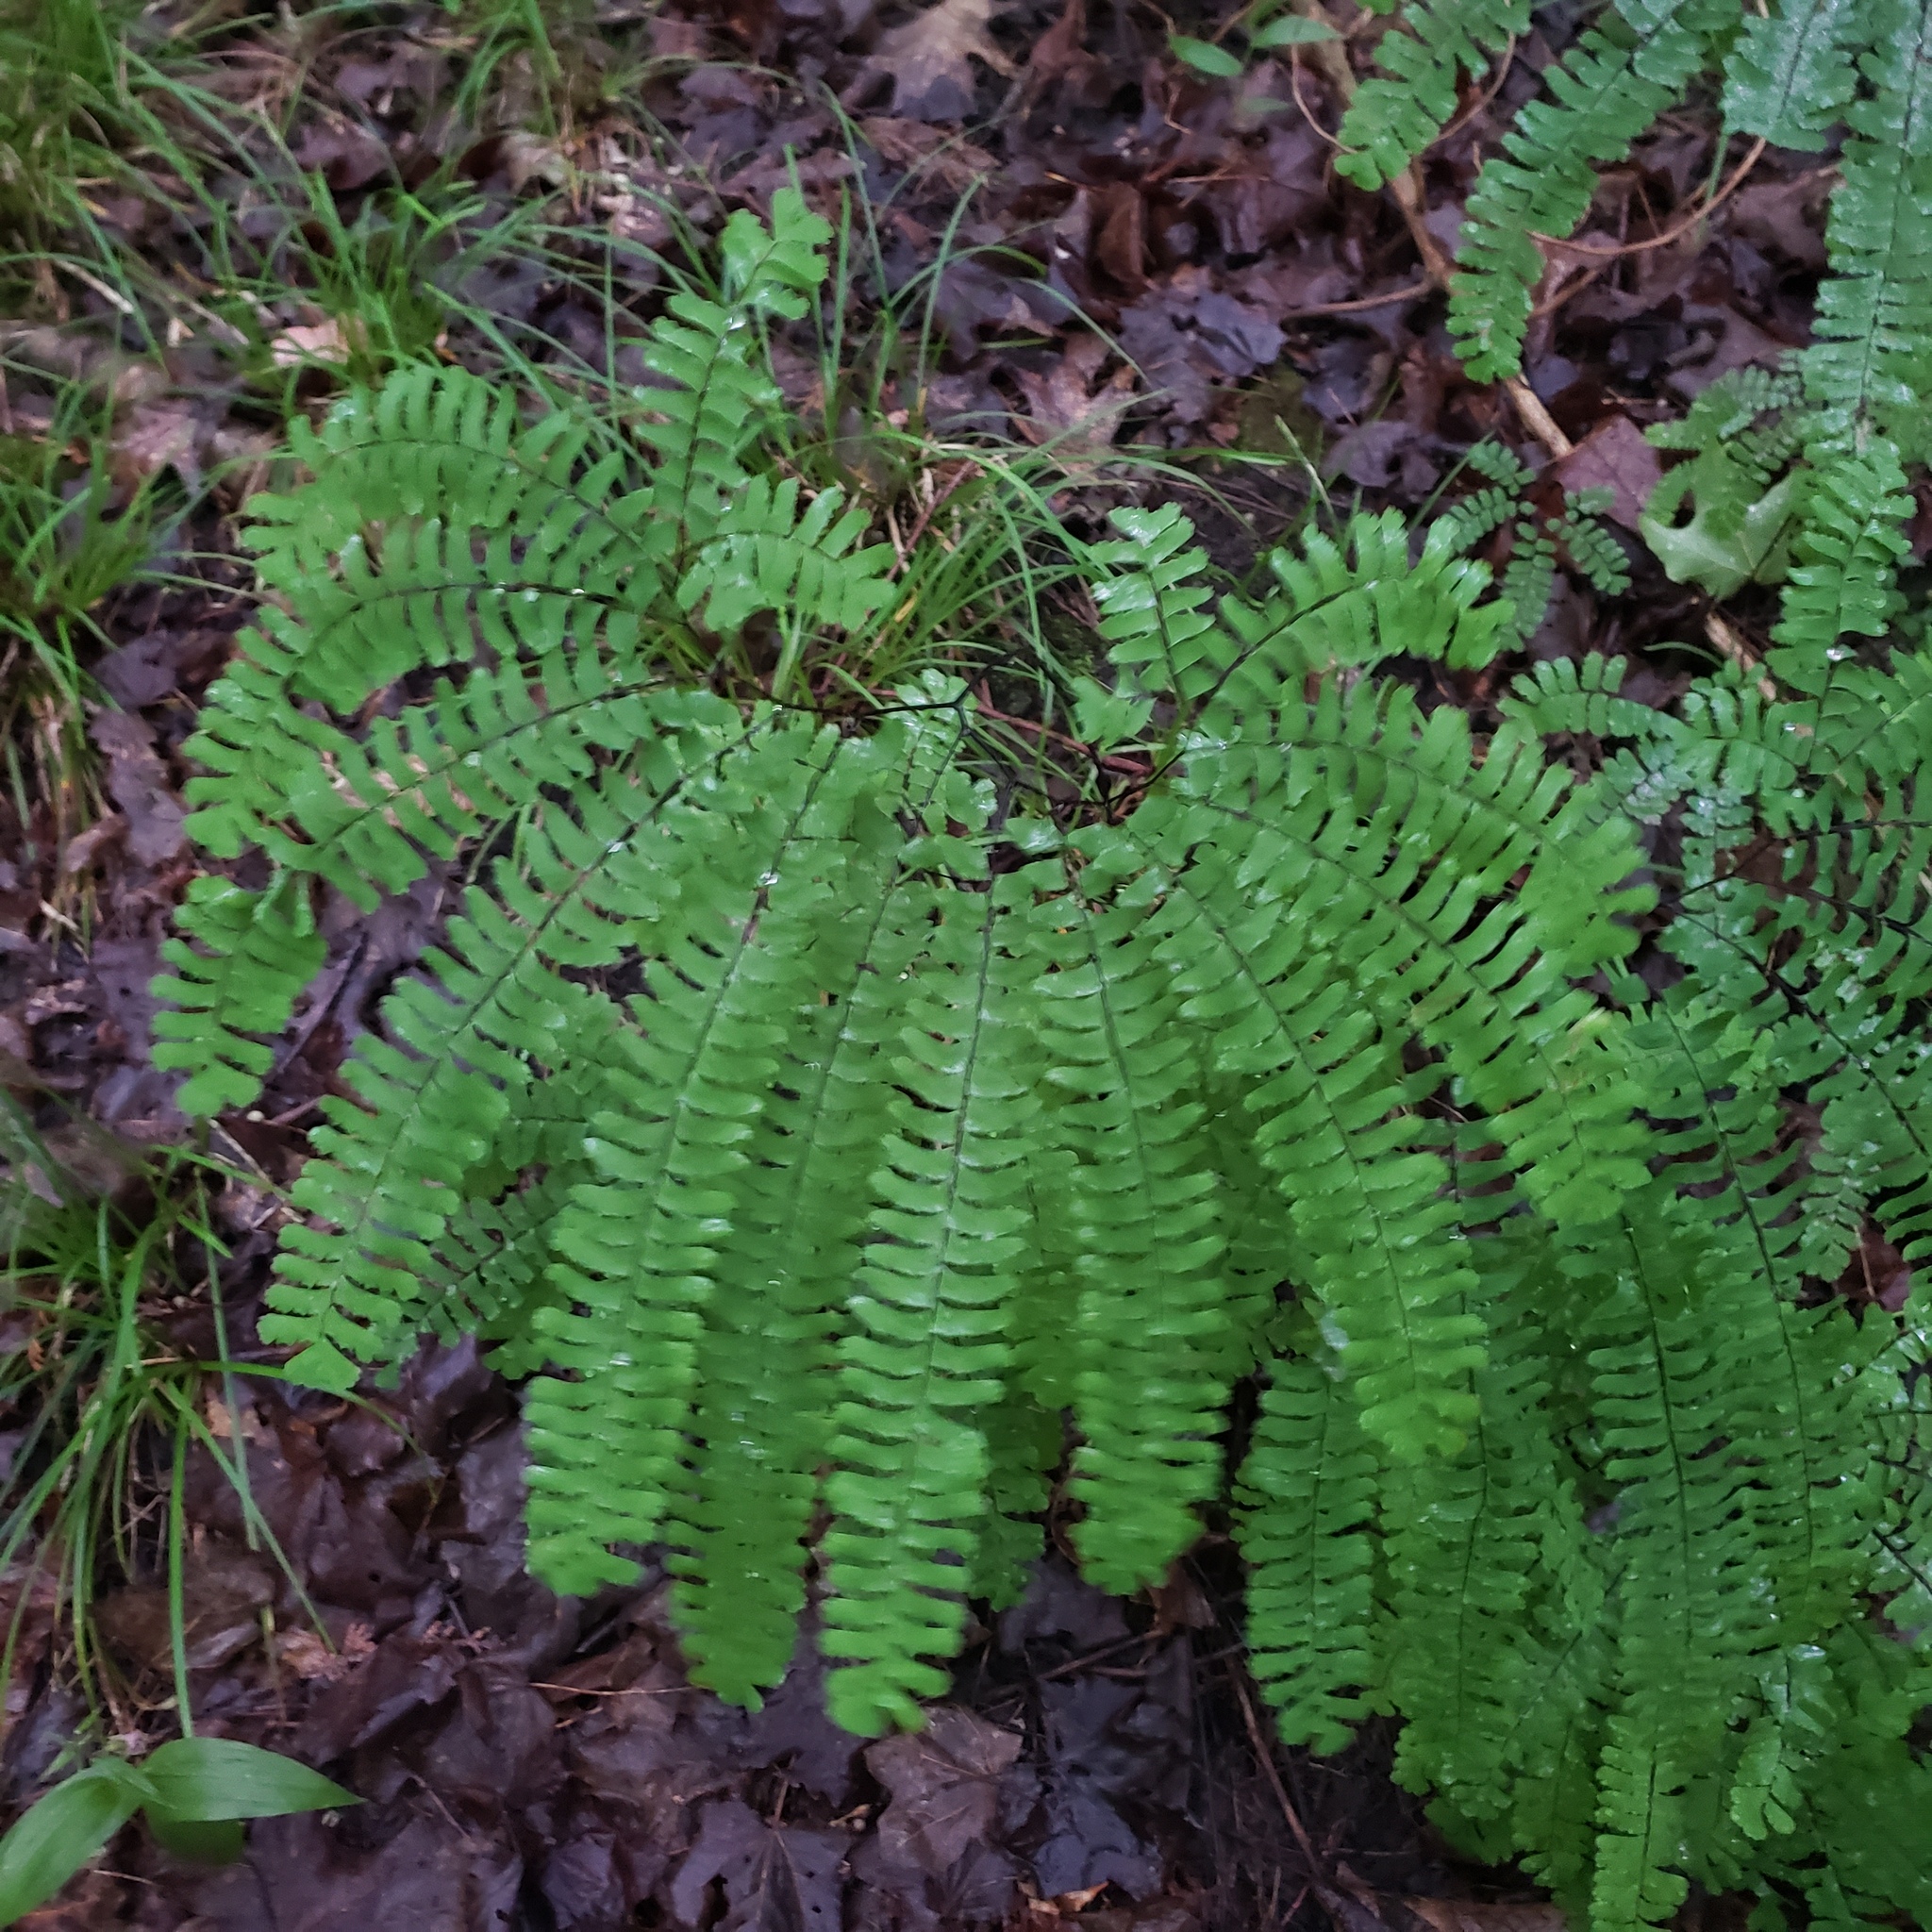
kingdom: Plantae
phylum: Tracheophyta
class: Polypodiopsida
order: Polypodiales
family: Pteridaceae
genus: Adiantum
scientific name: Adiantum pedatum
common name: Five-finger fern
